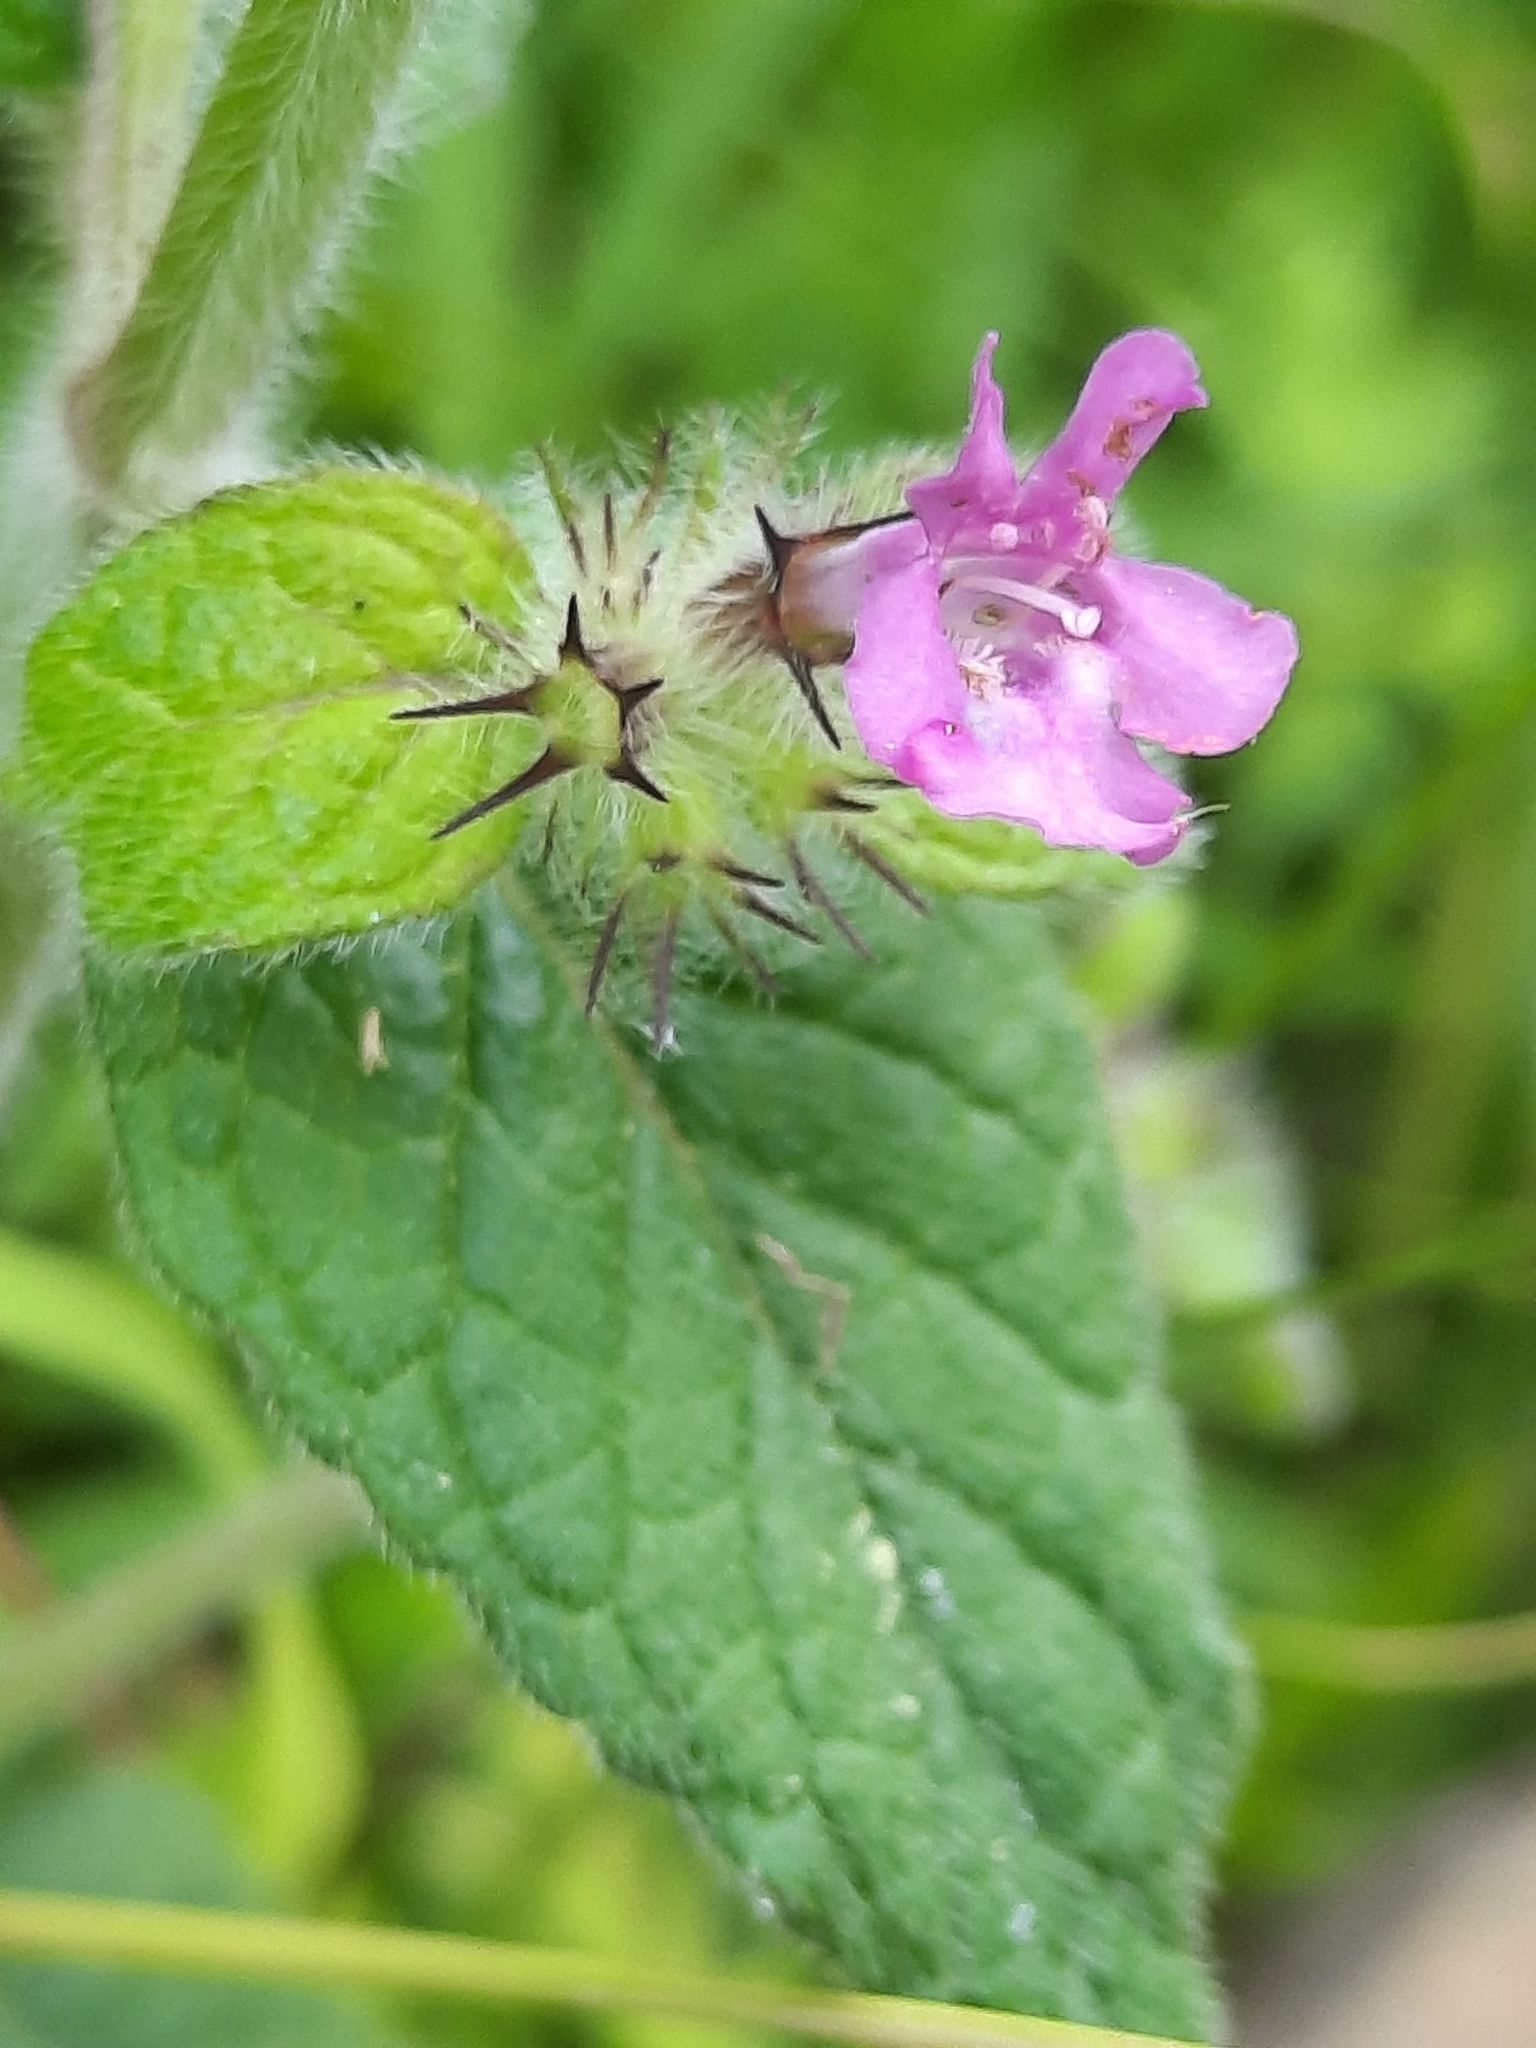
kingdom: Plantae
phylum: Tracheophyta
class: Magnoliopsida
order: Lamiales
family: Lamiaceae
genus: Clinopodium
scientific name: Clinopodium vulgare
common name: Wild basil
